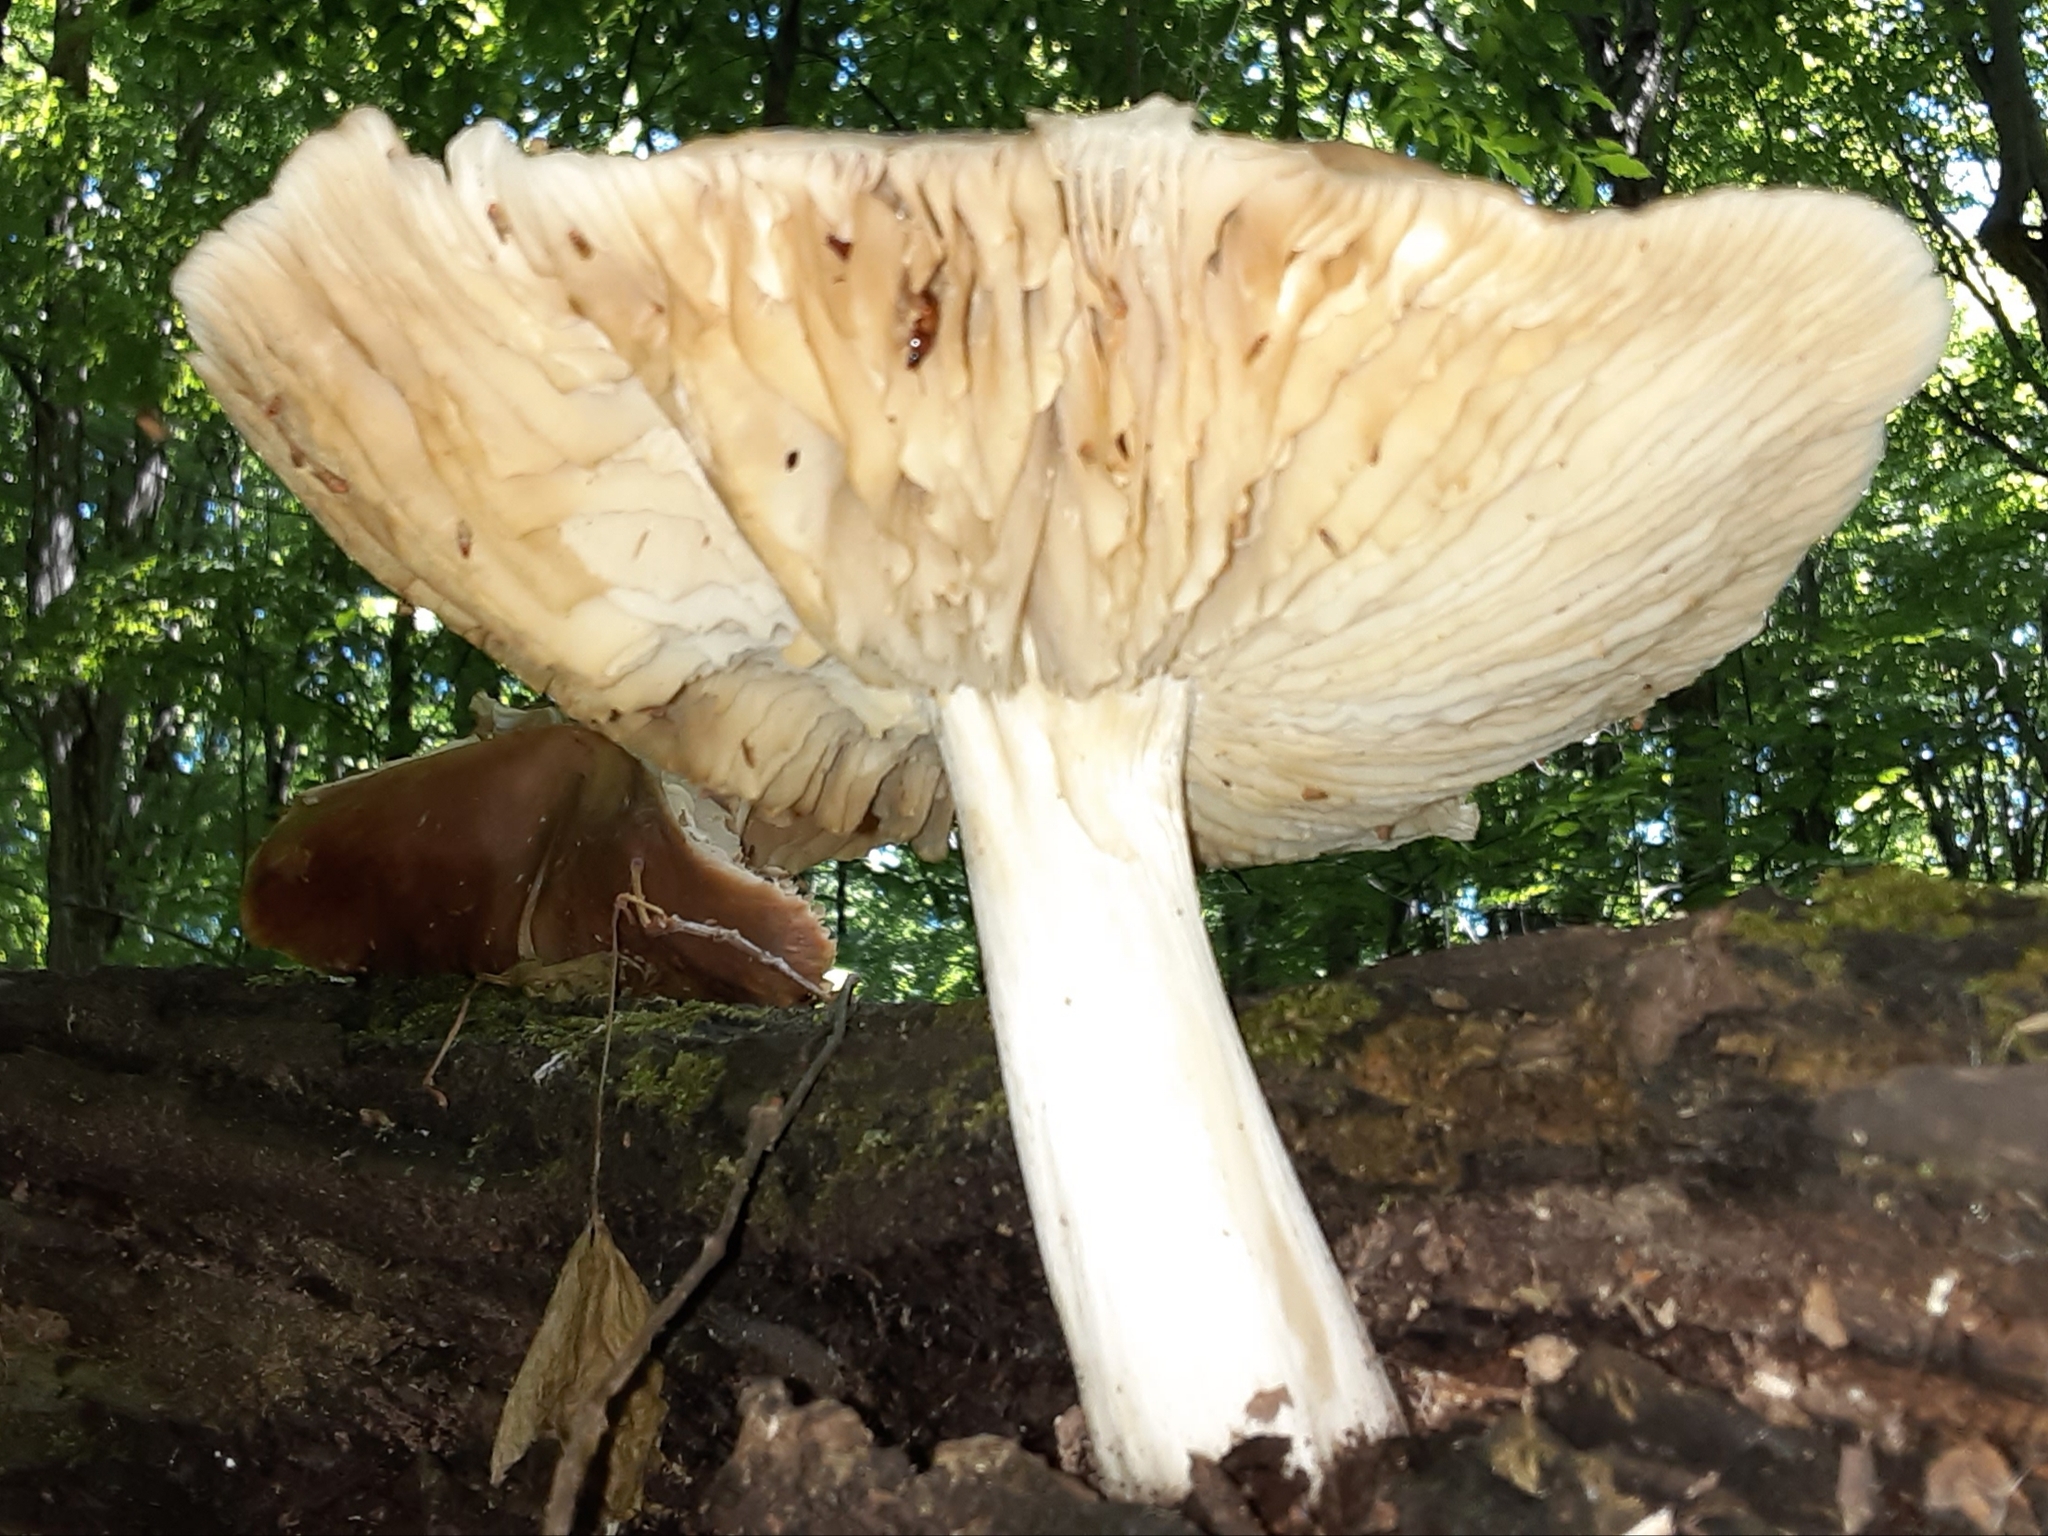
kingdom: Fungi
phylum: Basidiomycota
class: Agaricomycetes
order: Agaricales
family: Tricholomataceae
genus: Megacollybia
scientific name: Megacollybia rodmanii
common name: Eastern american platterful mushroom
